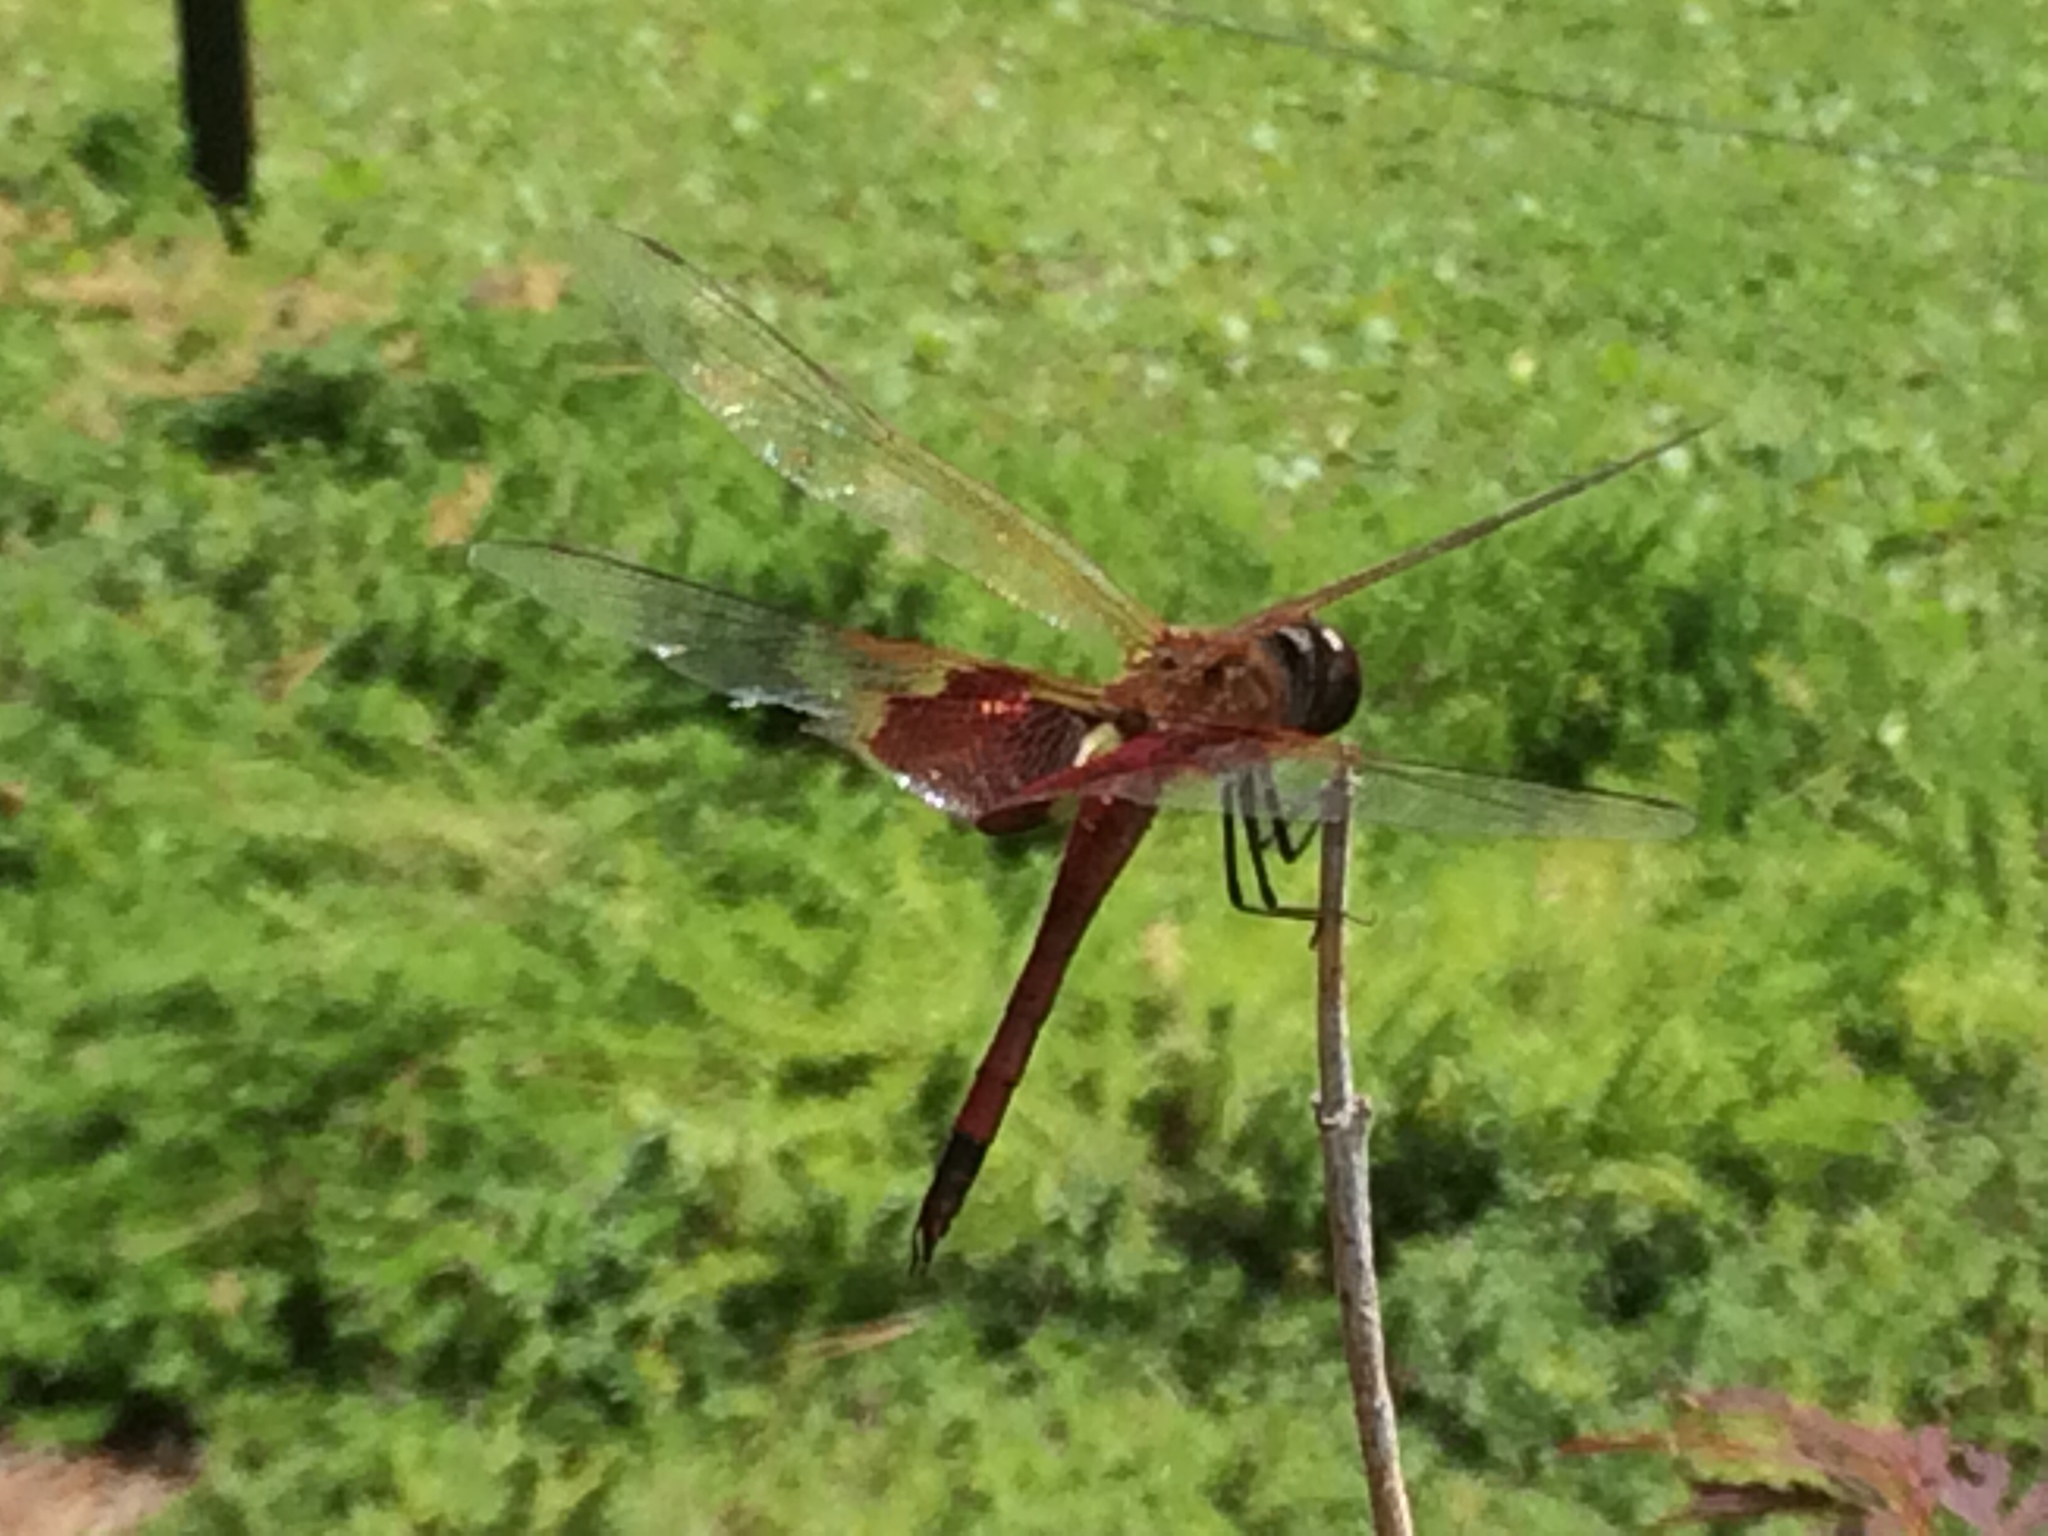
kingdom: Animalia
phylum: Arthropoda
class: Insecta
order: Odonata
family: Libellulidae
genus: Tramea
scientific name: Tramea carolina
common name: Carolina saddlebags
